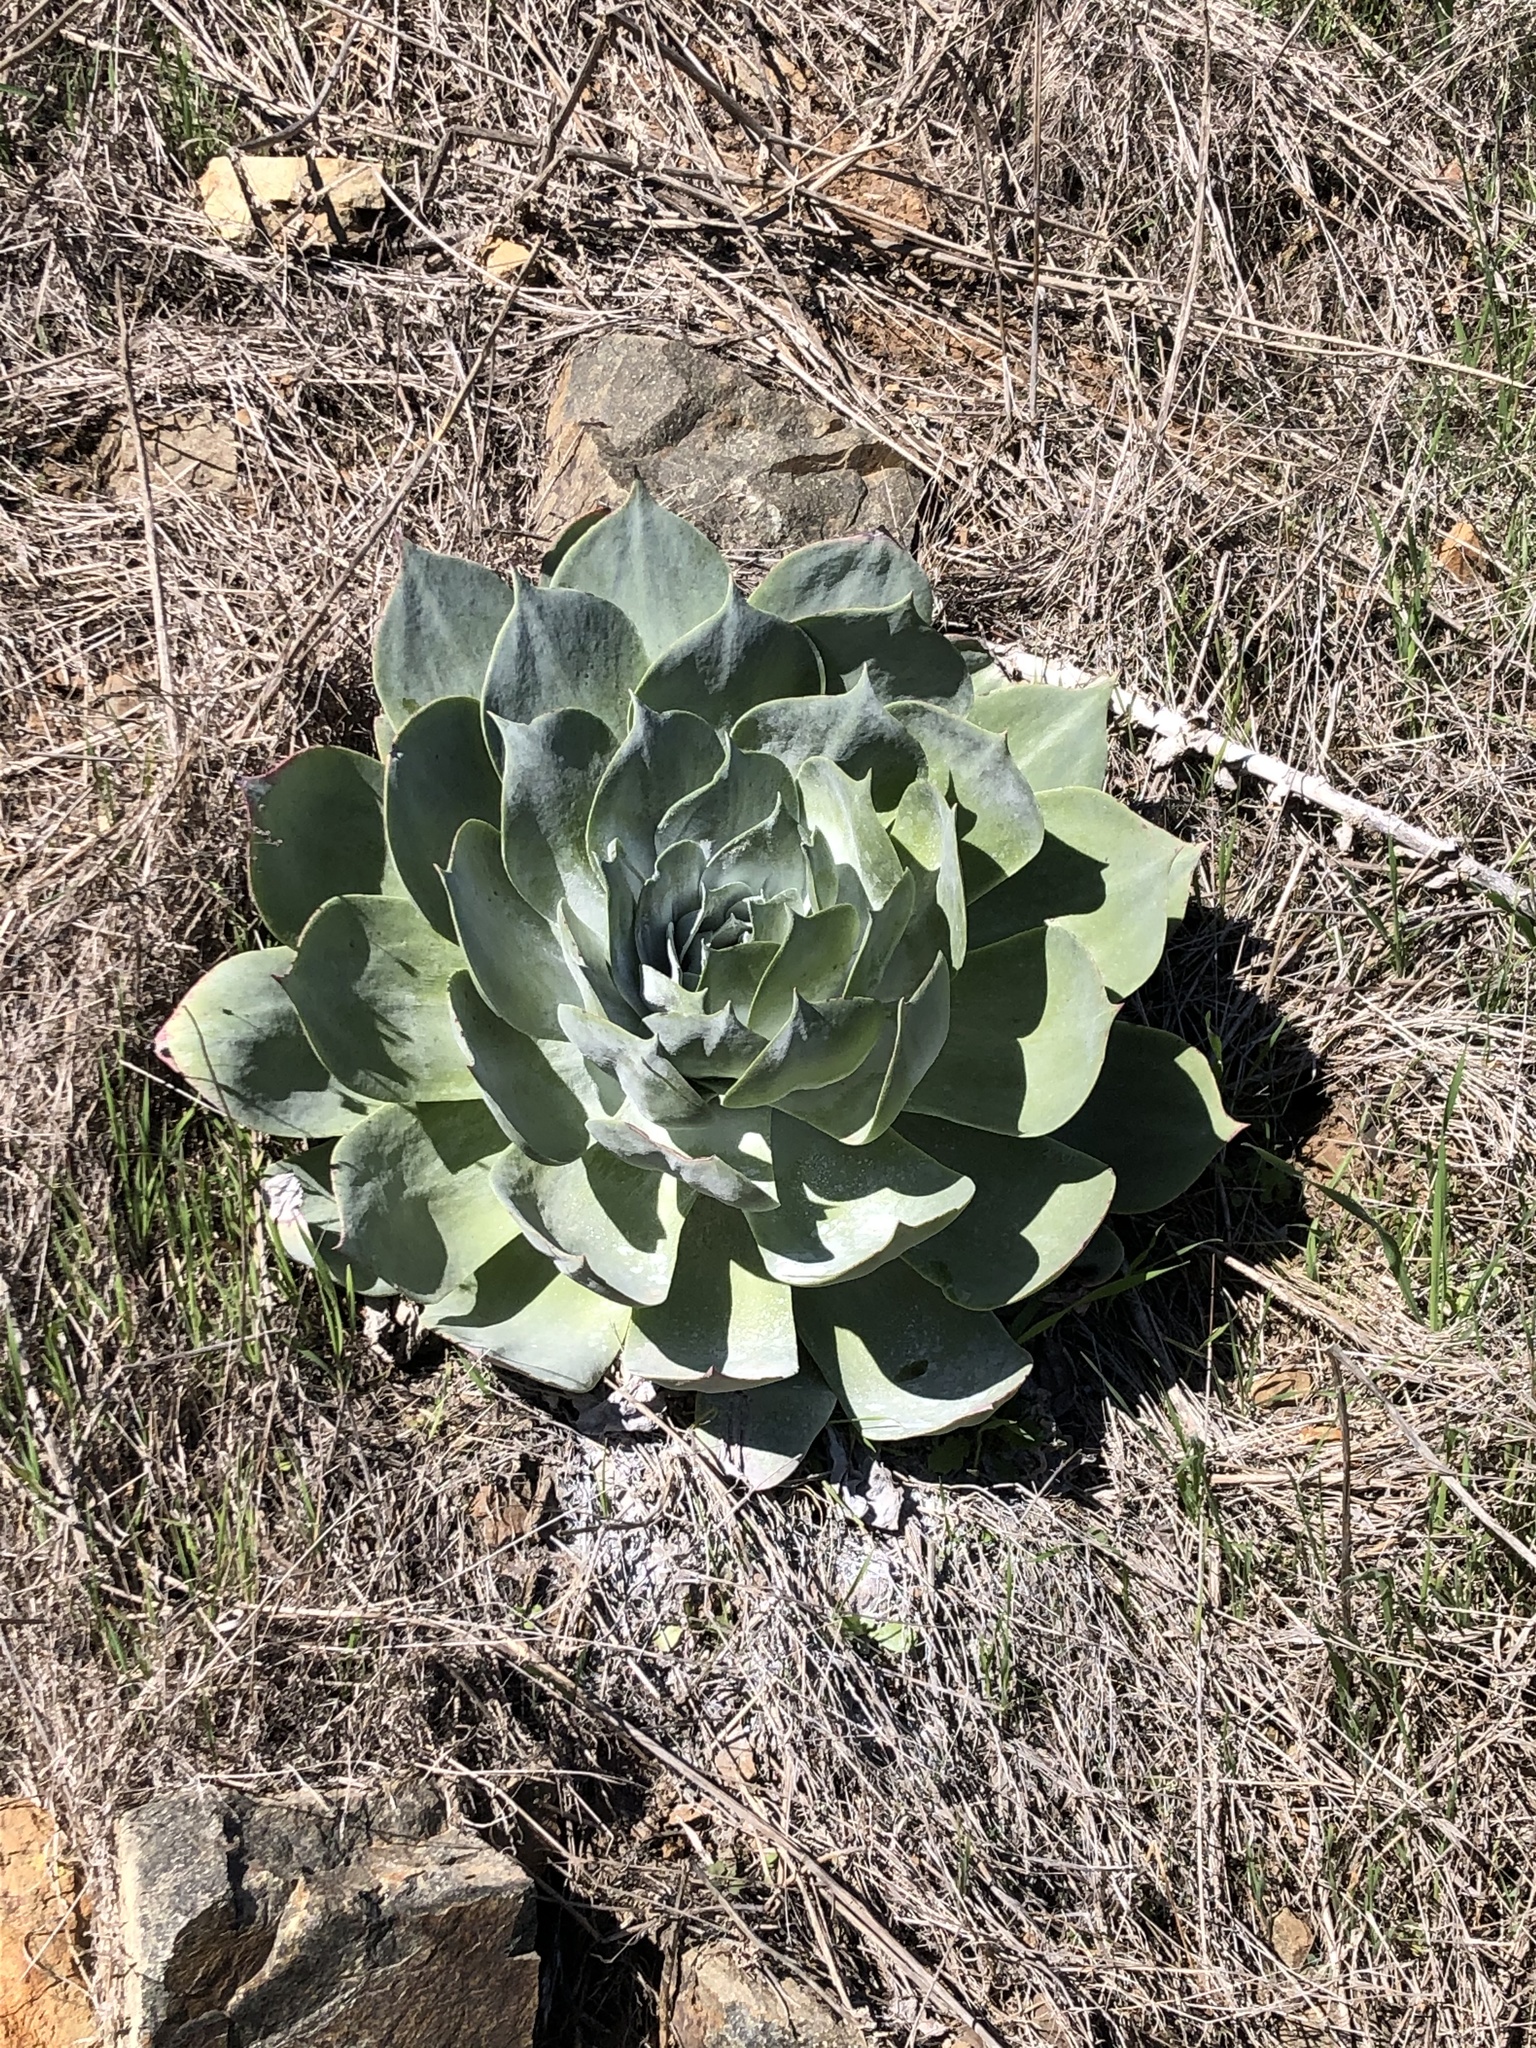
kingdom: Plantae
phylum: Tracheophyta
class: Magnoliopsida
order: Saxifragales
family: Crassulaceae
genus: Dudleya
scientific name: Dudleya pulverulenta
